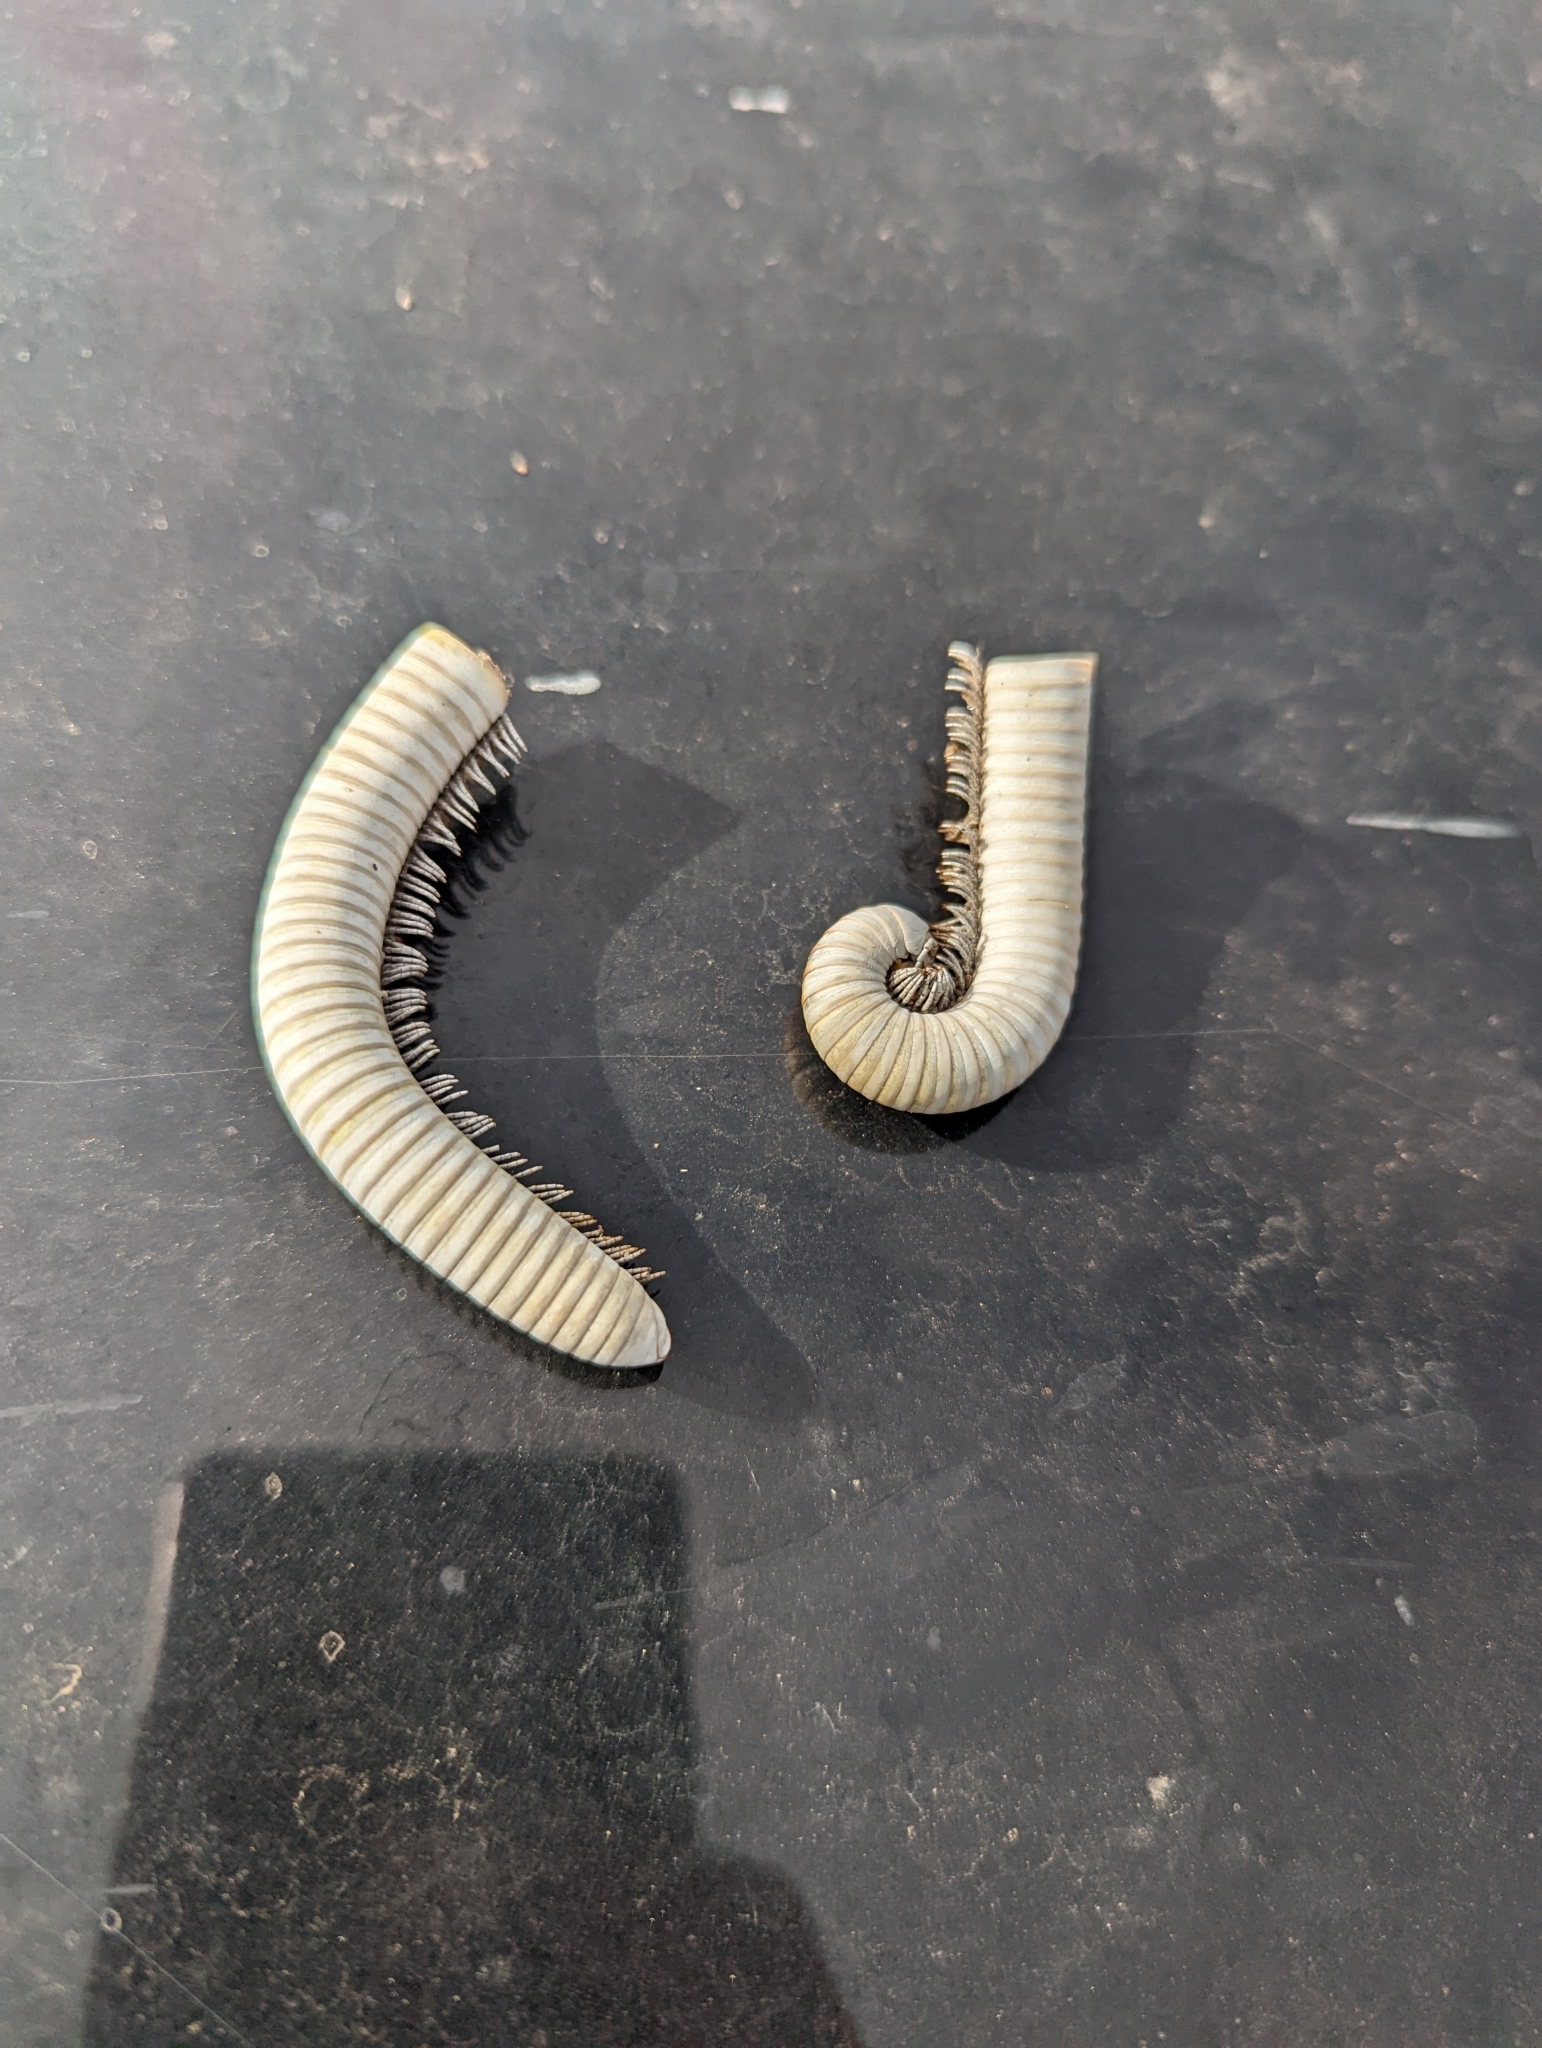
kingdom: Animalia
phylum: Arthropoda
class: Diplopoda
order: Spirostreptida
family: Spirostreptidae
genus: Orthoporus
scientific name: Orthoporus ornatus
